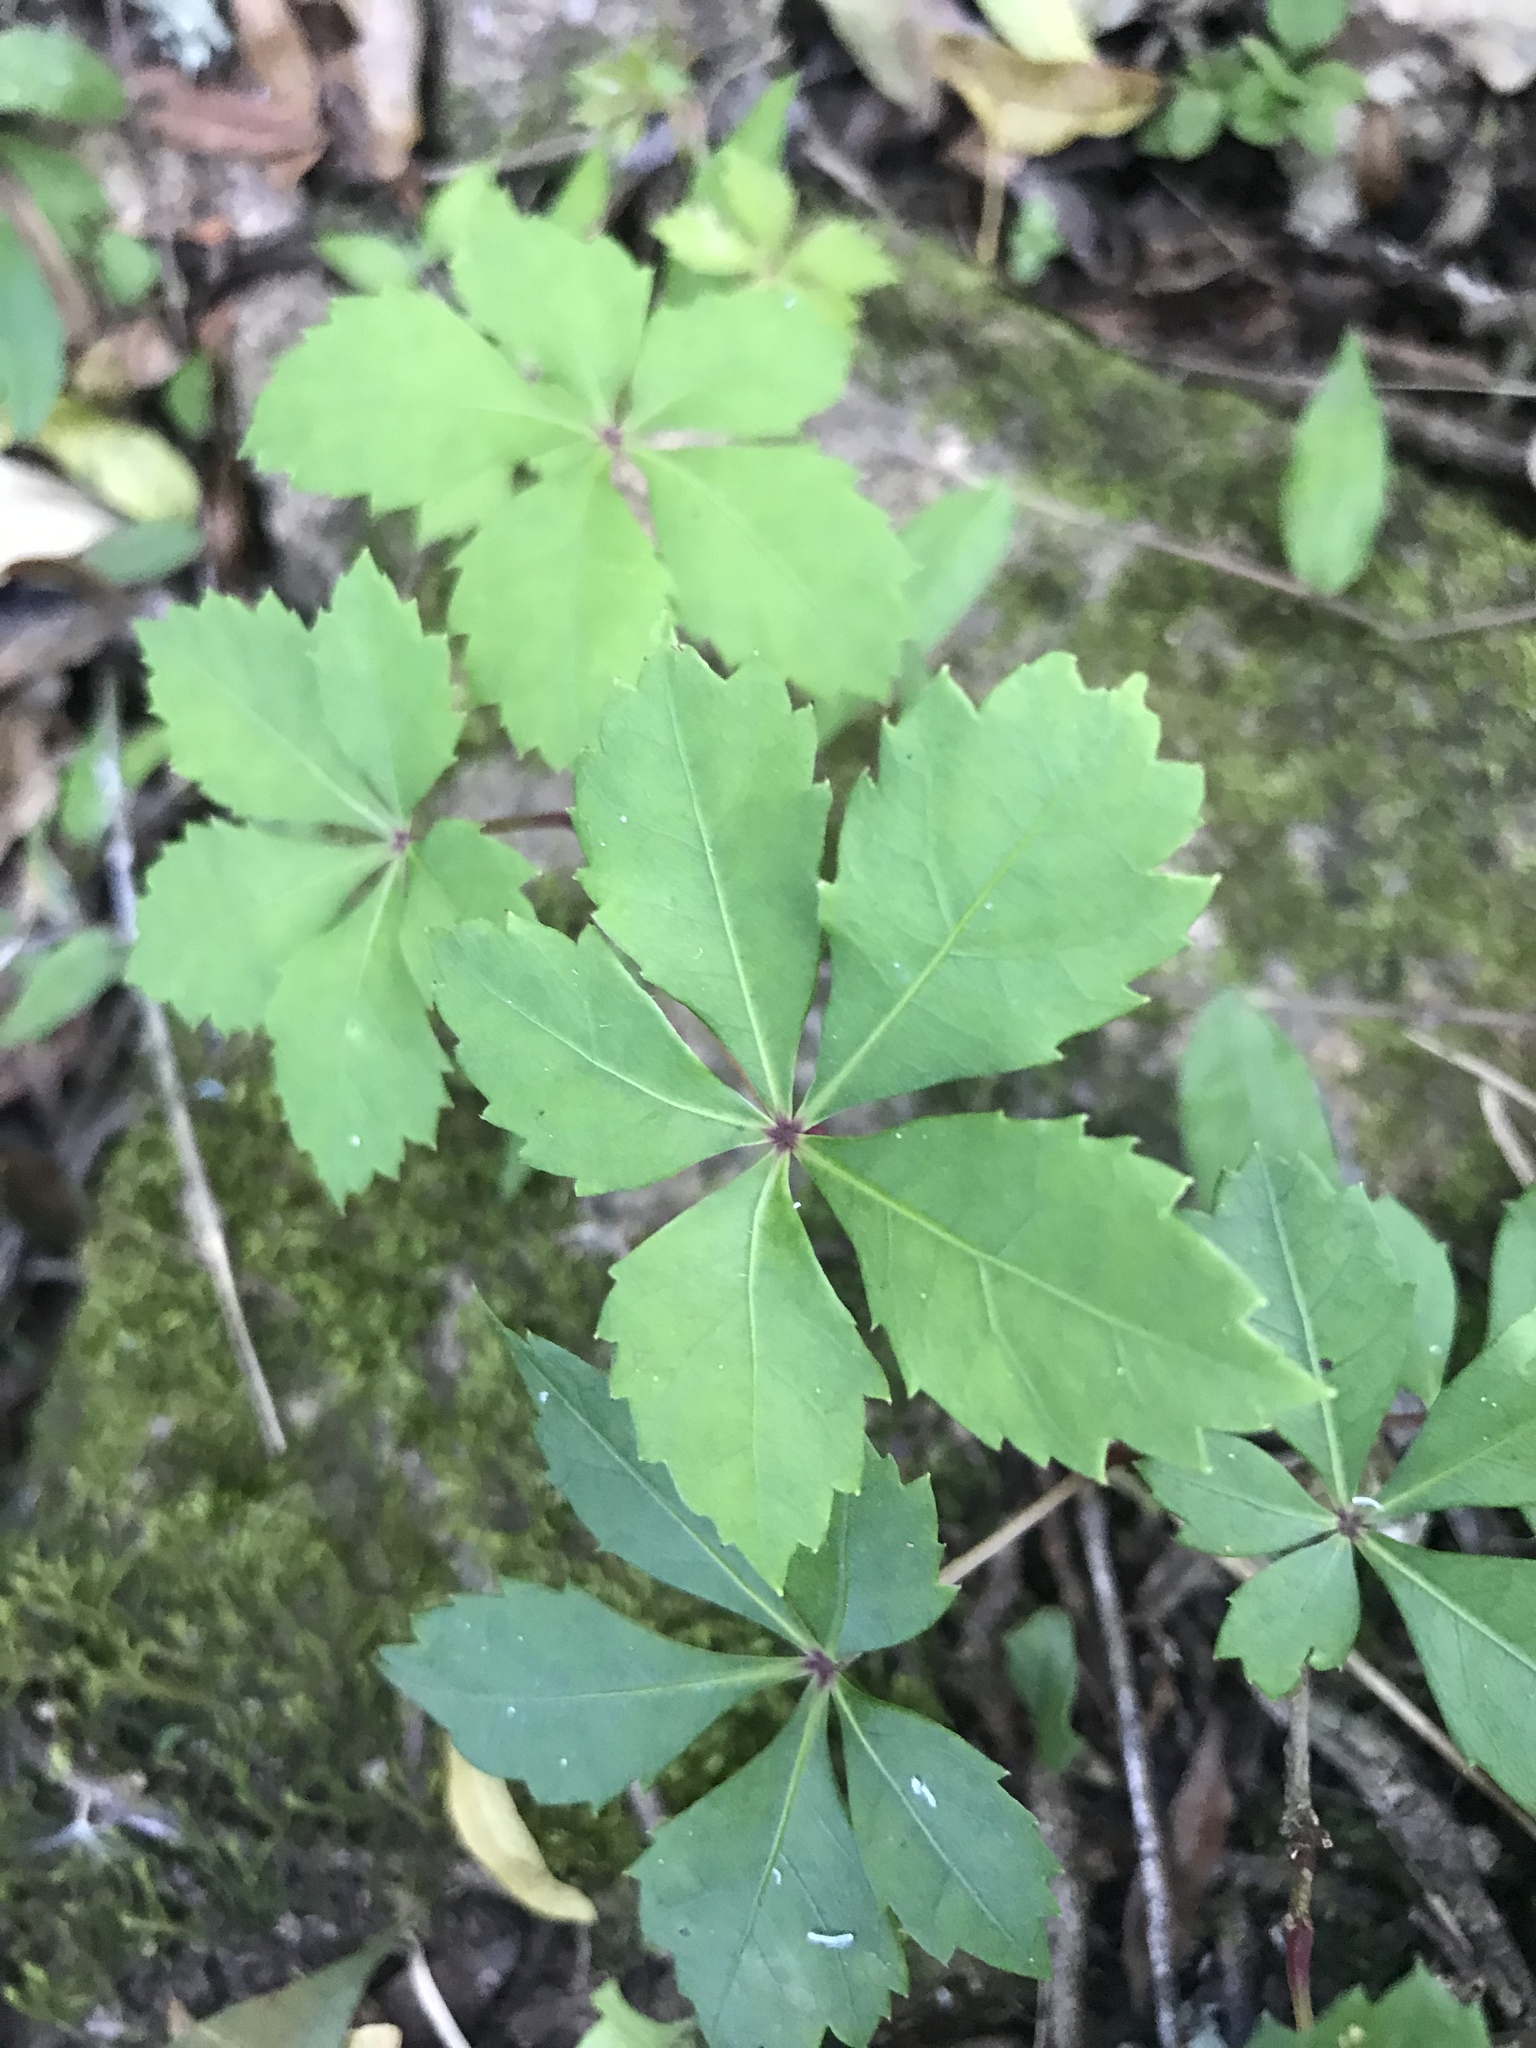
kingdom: Plantae
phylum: Tracheophyta
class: Magnoliopsida
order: Vitales
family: Vitaceae
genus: Clematicissus
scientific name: Clematicissus striata
